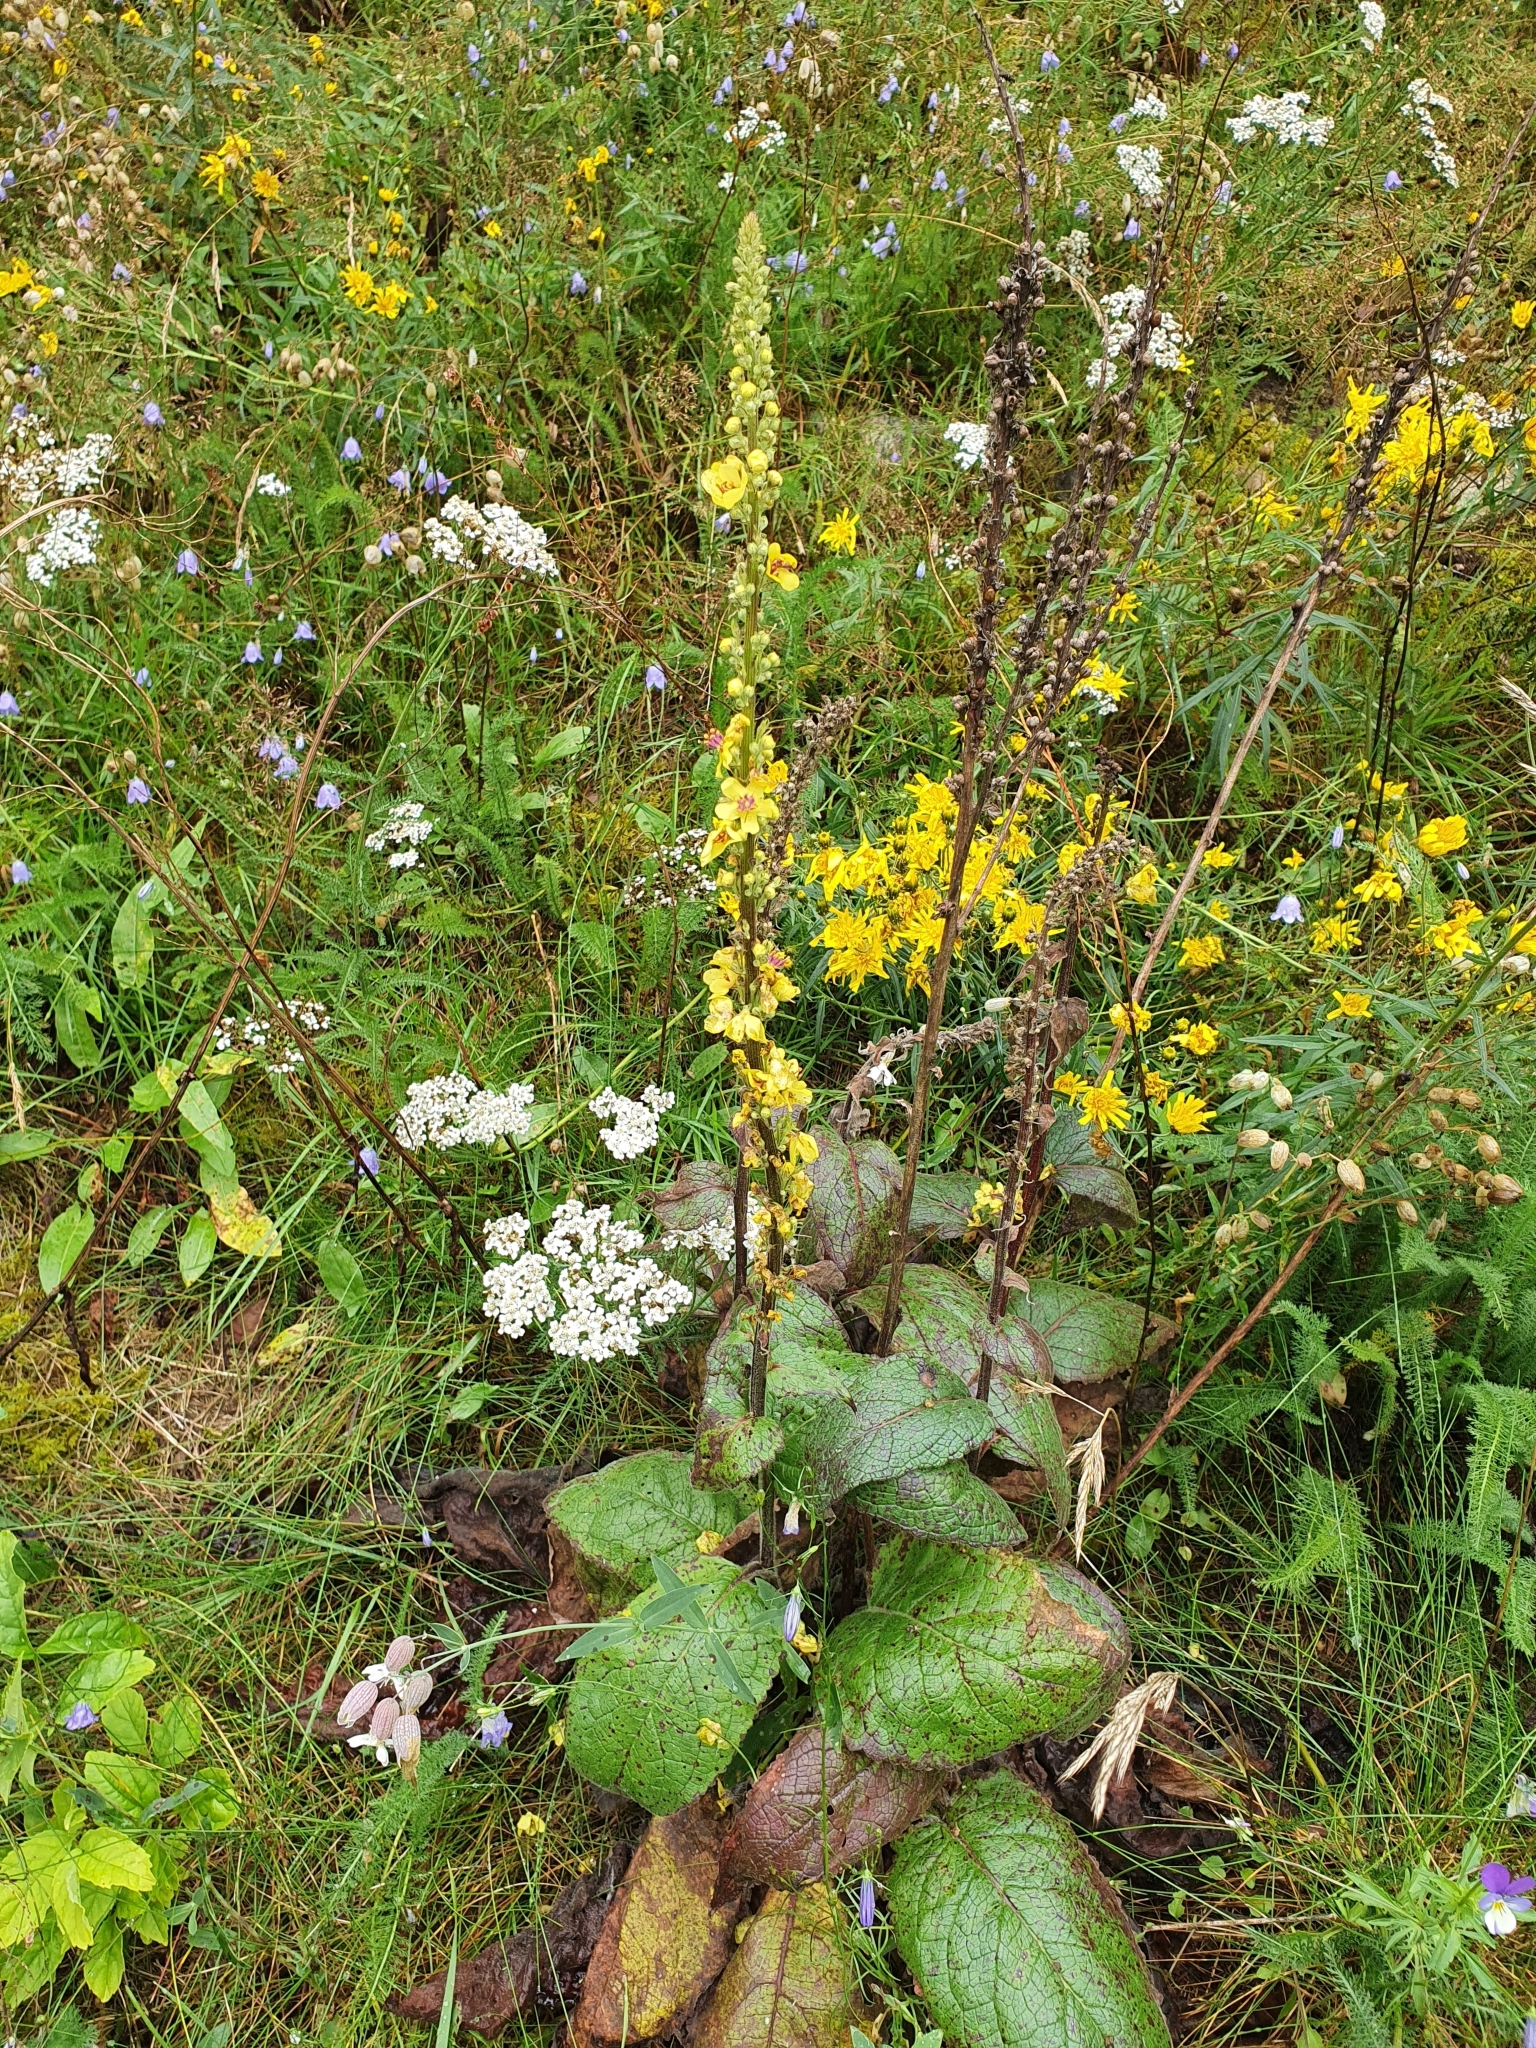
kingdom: Plantae
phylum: Tracheophyta
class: Magnoliopsida
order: Lamiales
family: Scrophulariaceae
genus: Verbascum
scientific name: Verbascum nigrum
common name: Dark mullein
